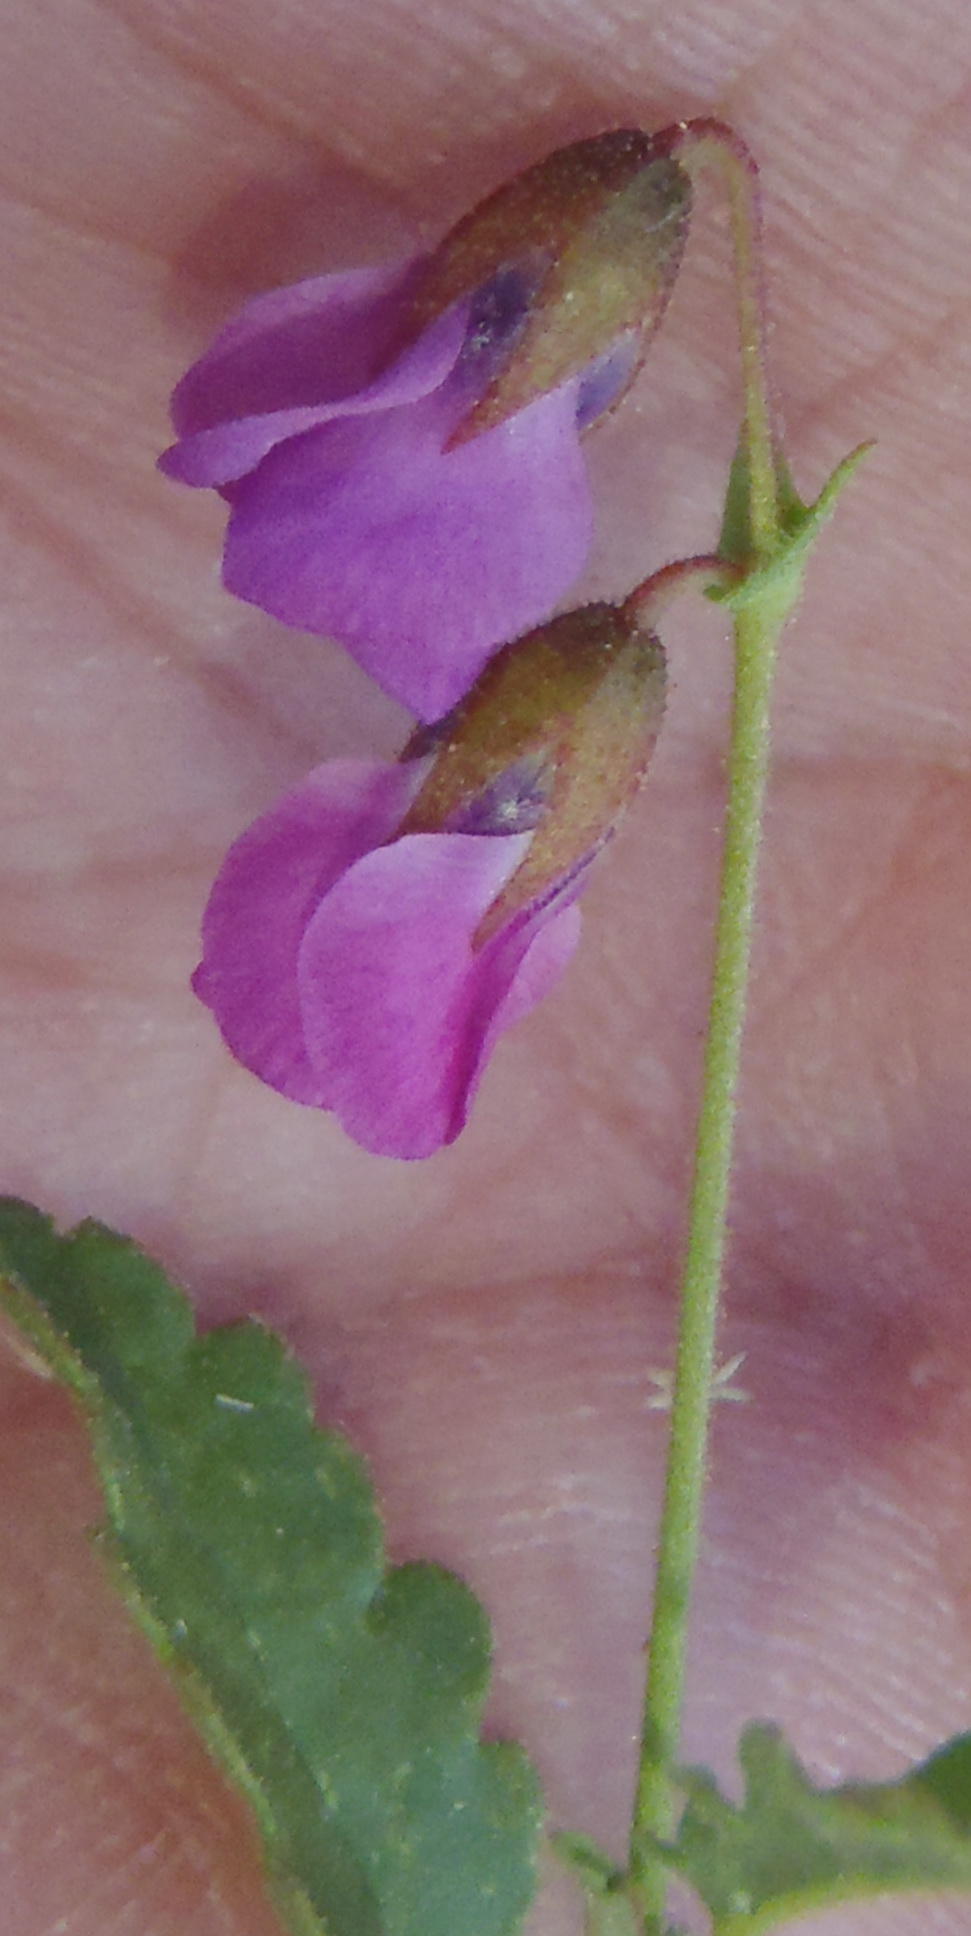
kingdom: Plantae
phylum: Tracheophyta
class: Magnoliopsida
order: Malvales
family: Malvaceae
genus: Hermannia
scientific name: Hermannia coccocarpa
